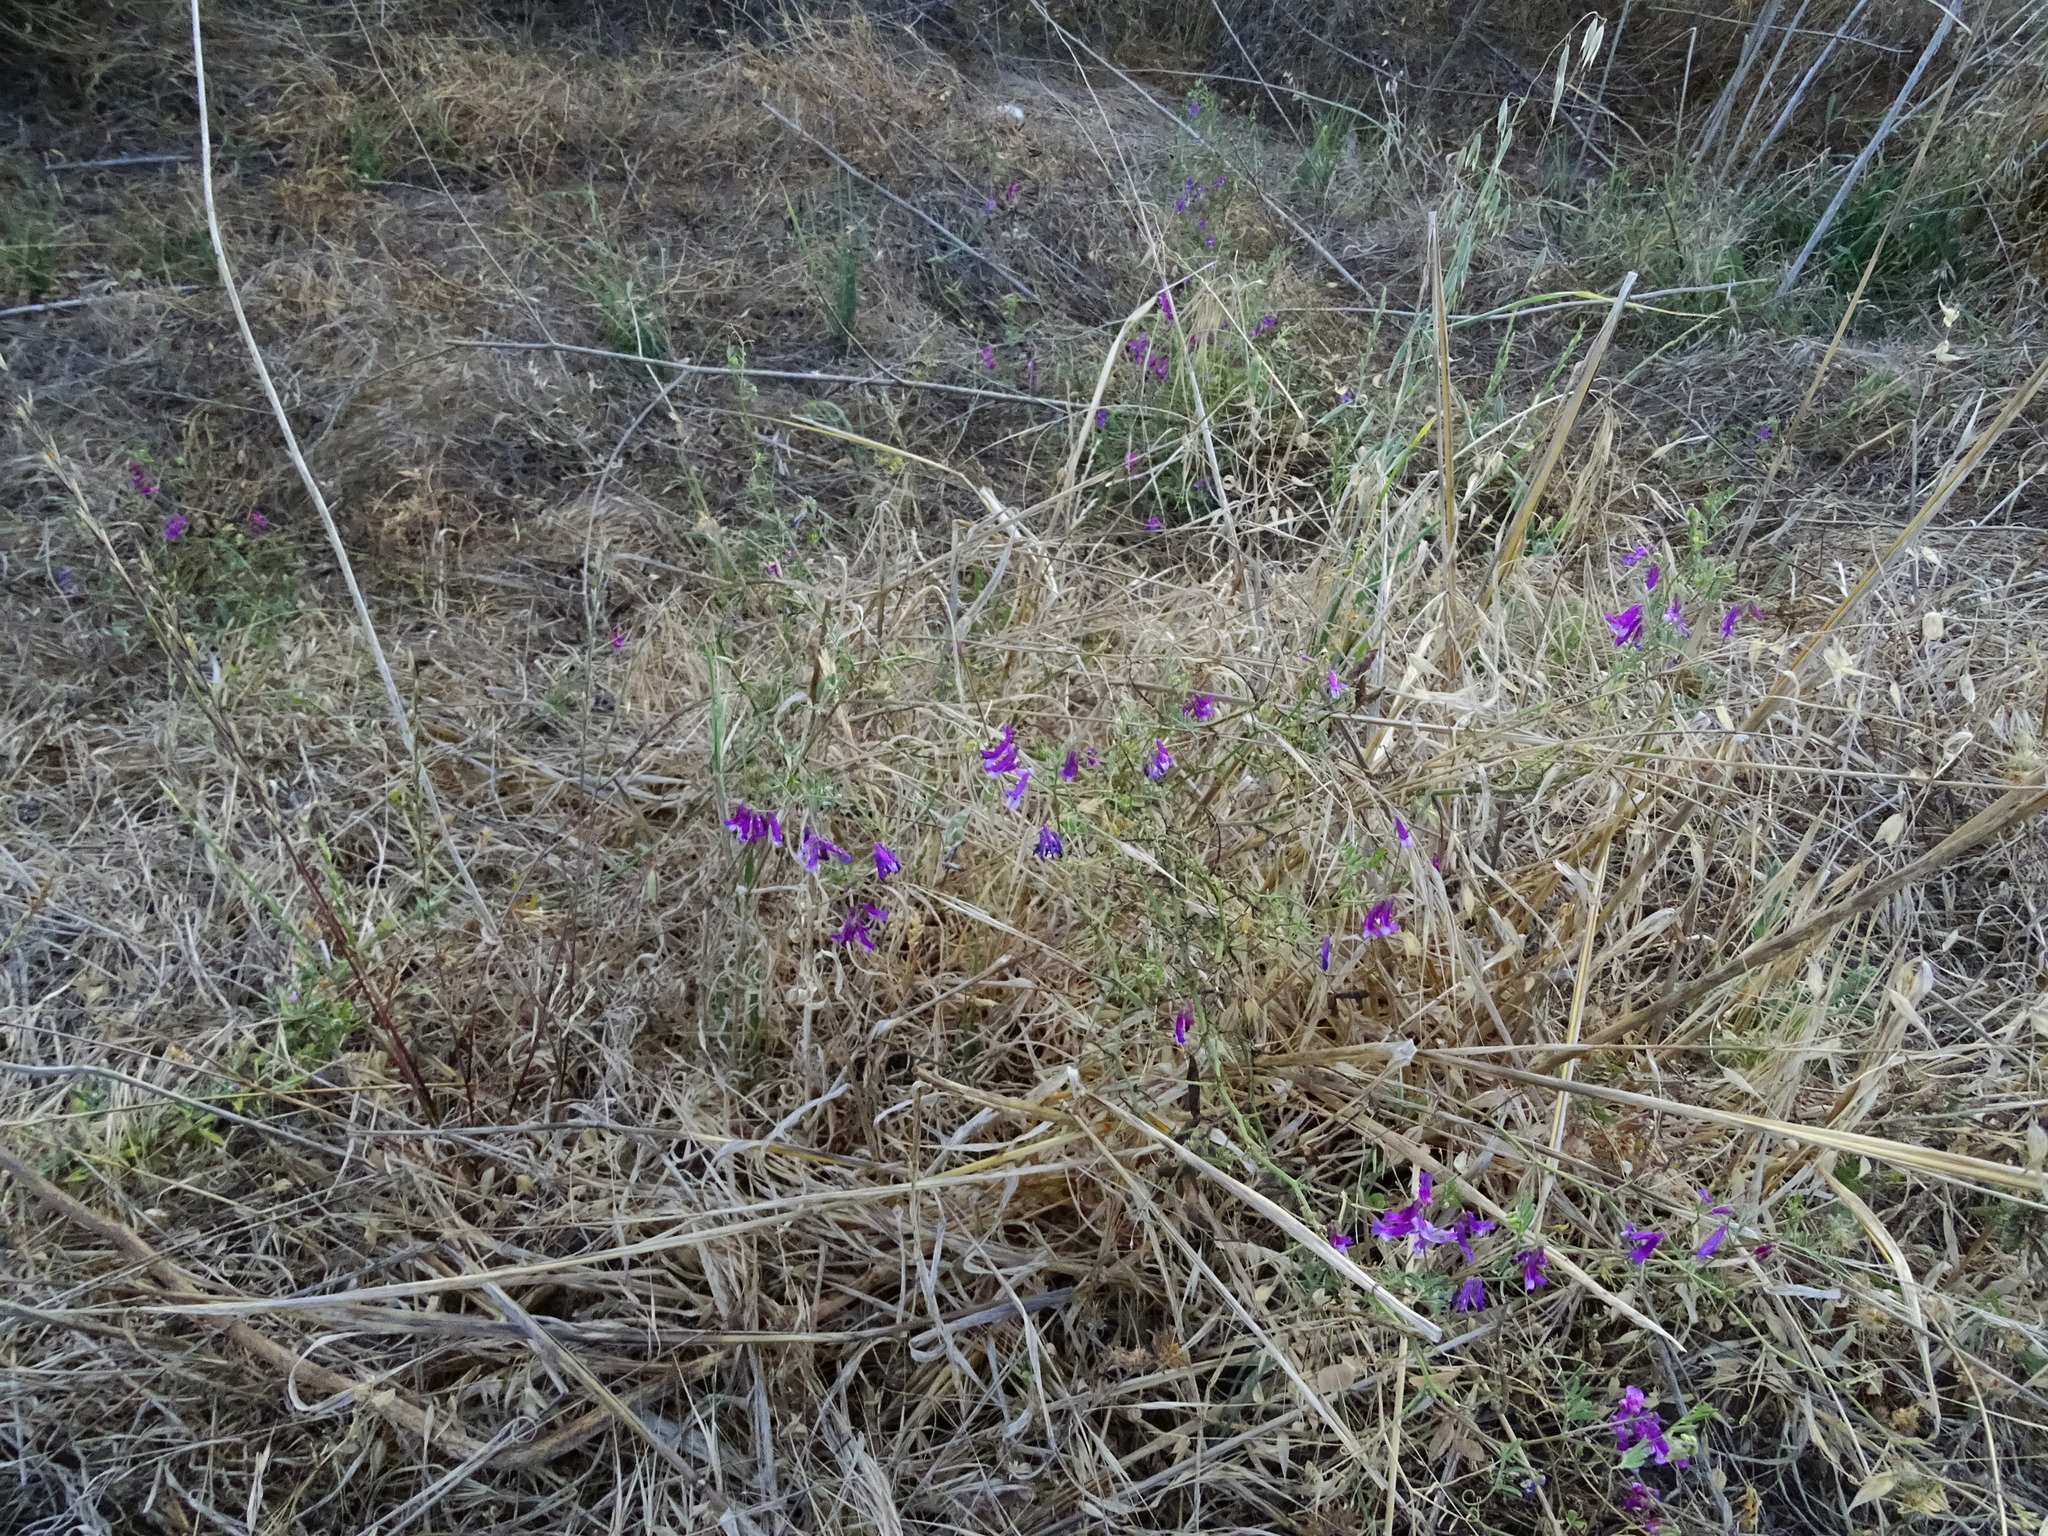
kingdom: Plantae
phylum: Tracheophyta
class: Magnoliopsida
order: Fabales
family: Fabaceae
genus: Vicia
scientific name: Vicia villosa
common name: Fodder vetch
